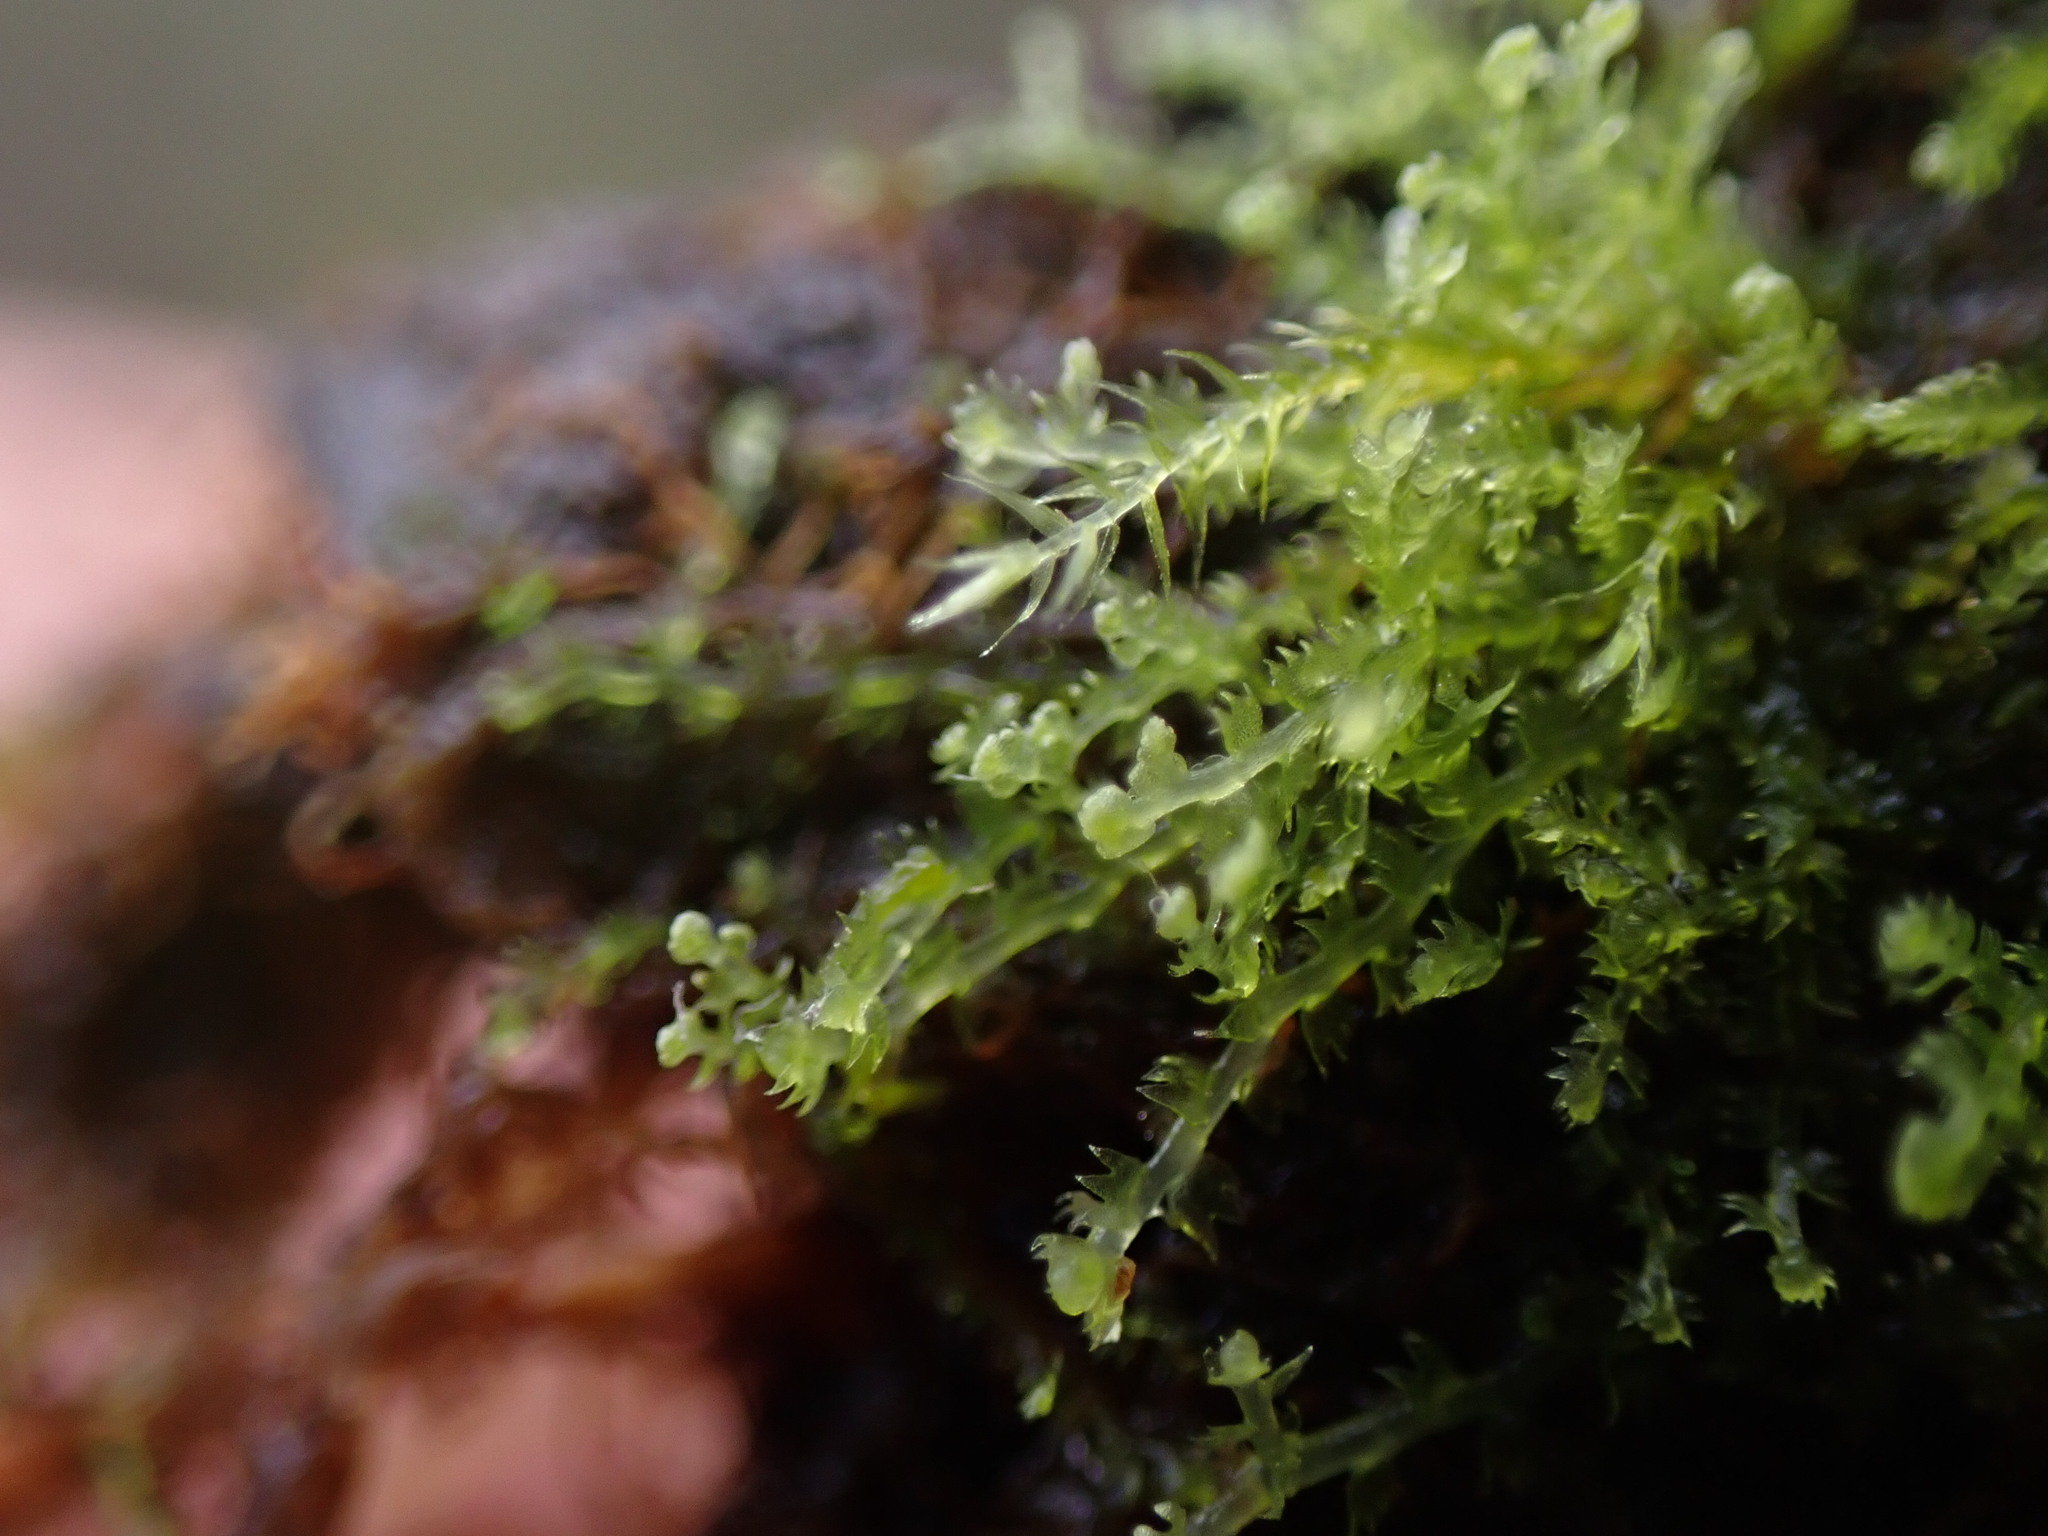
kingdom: Plantae
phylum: Marchantiophyta
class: Jungermanniopsida
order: Jungermanniales
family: Lepidoziaceae
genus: Lepidozia
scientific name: Lepidozia reptans
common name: Creeping fingerwort
